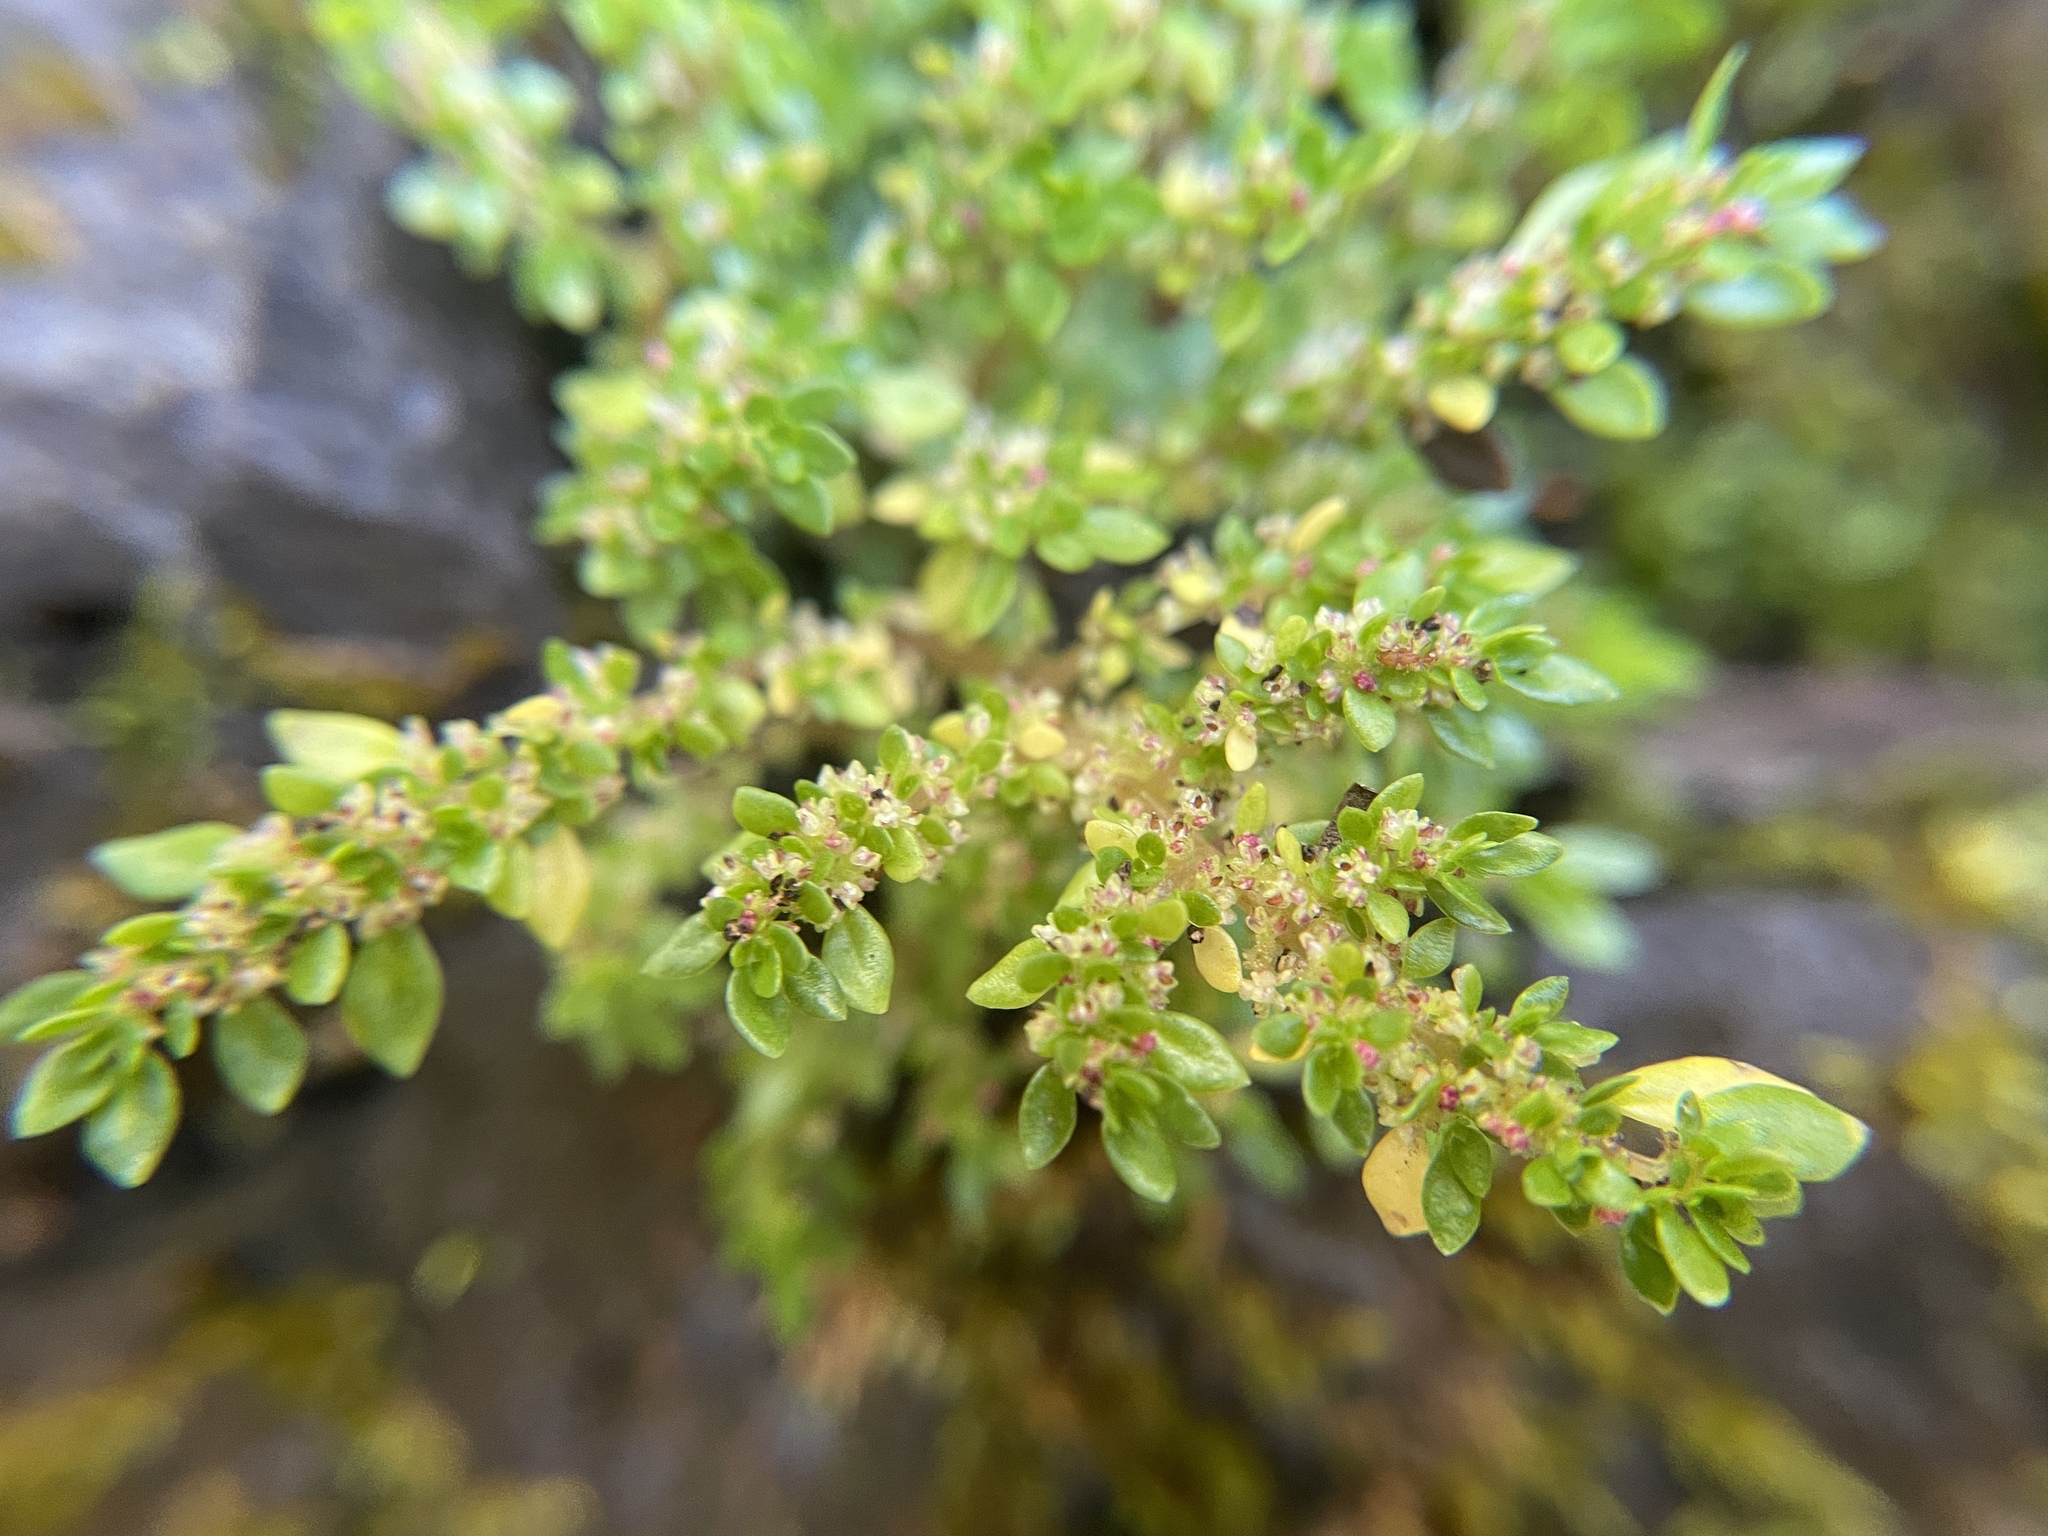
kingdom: Plantae
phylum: Tracheophyta
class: Magnoliopsida
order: Rosales
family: Urticaceae
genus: Pilea
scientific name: Pilea microphylla
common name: Artillery-plant
